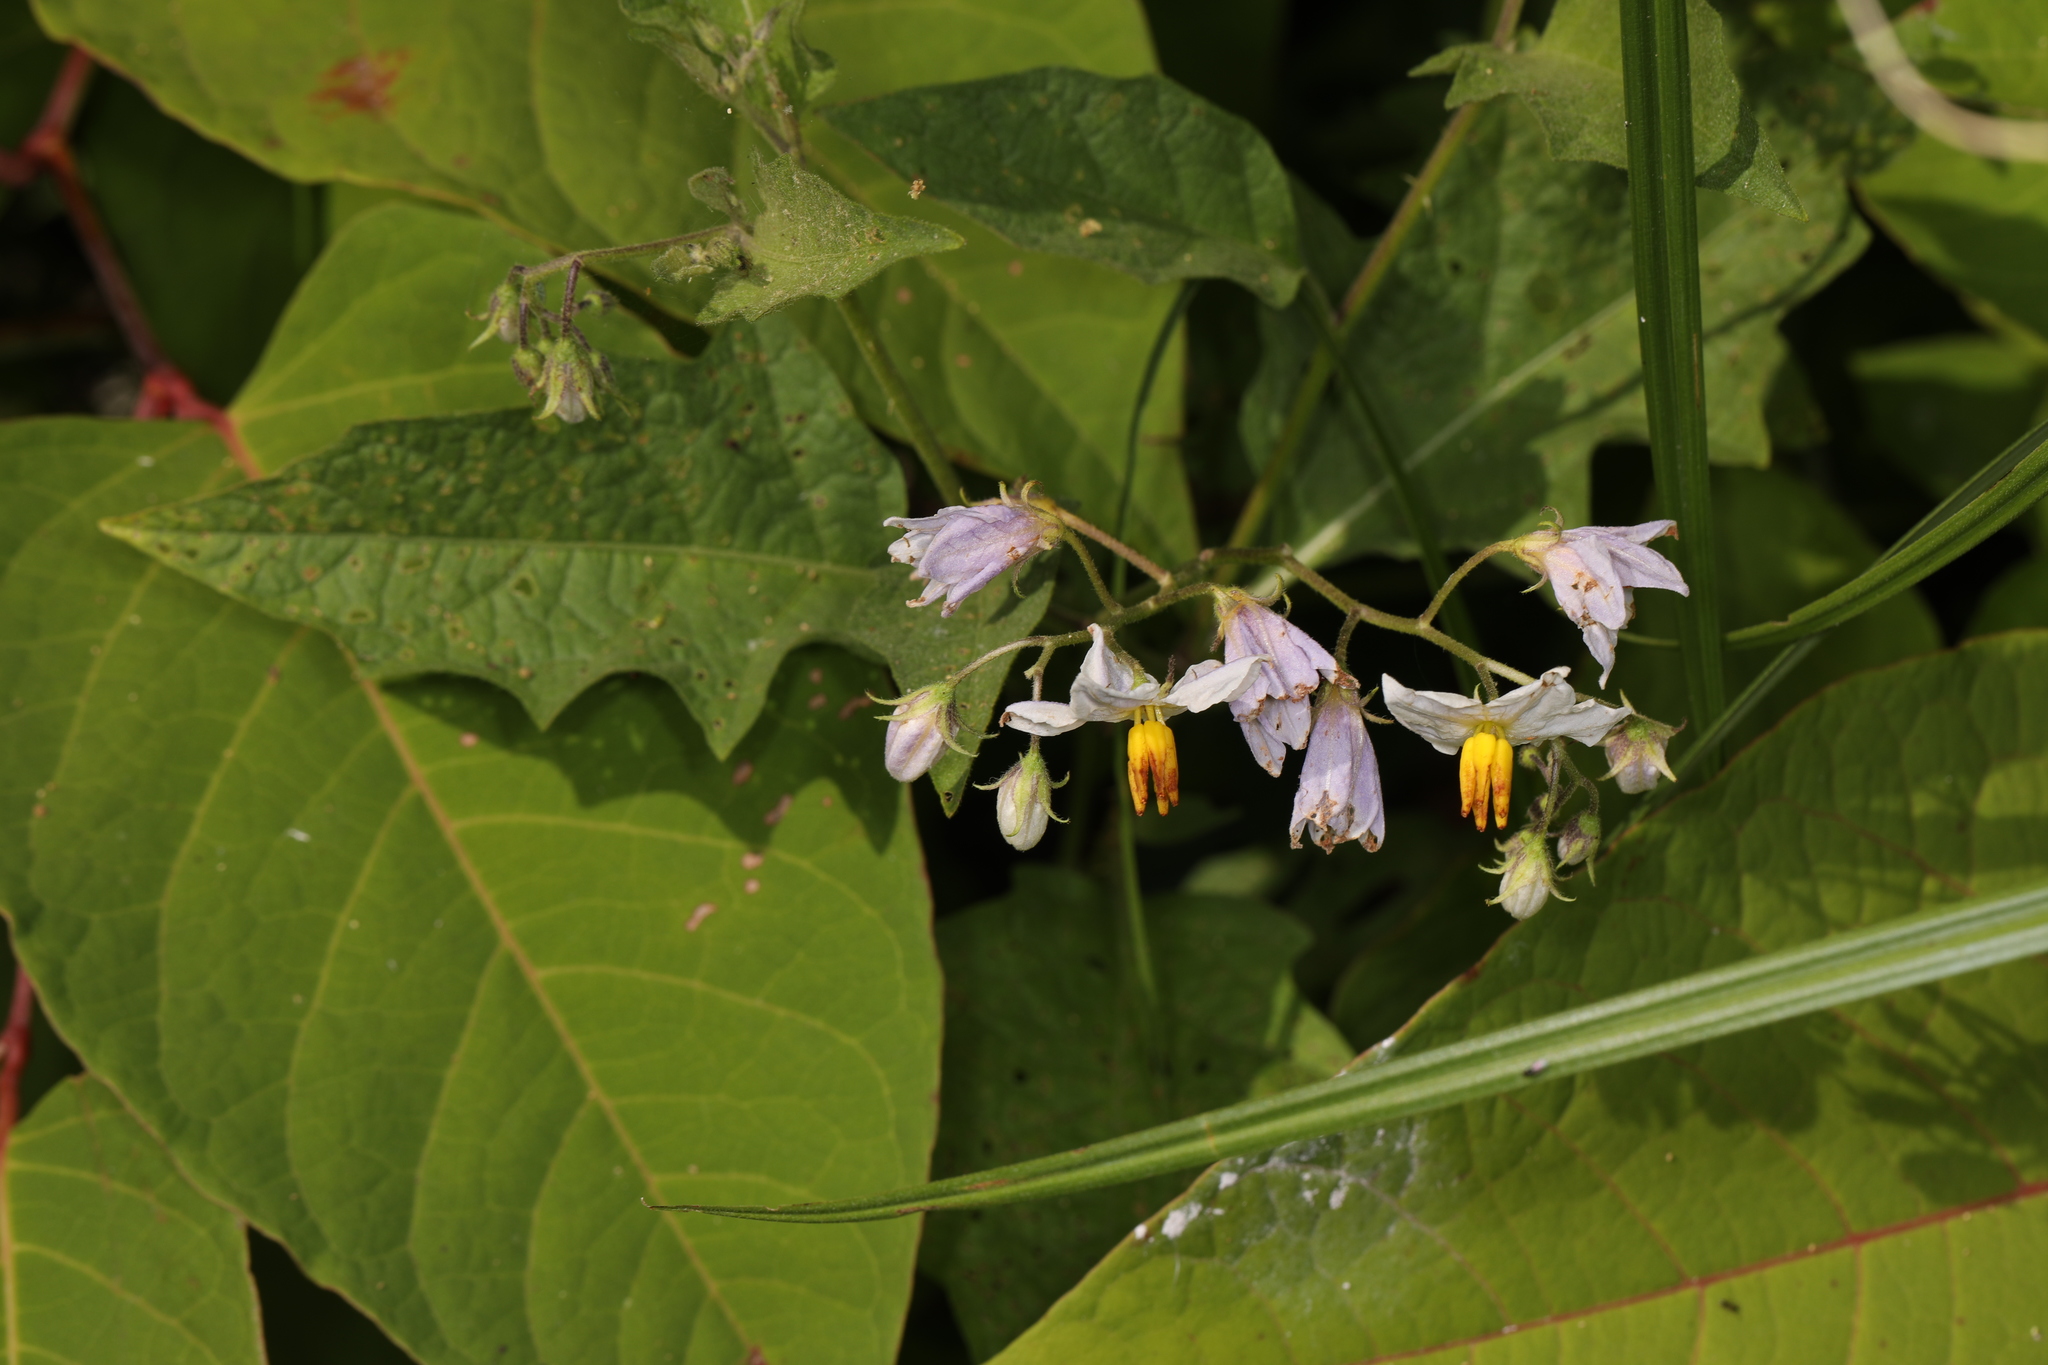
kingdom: Plantae
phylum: Tracheophyta
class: Magnoliopsida
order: Solanales
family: Solanaceae
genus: Solanum
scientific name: Solanum carolinense
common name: Horse-nettle
